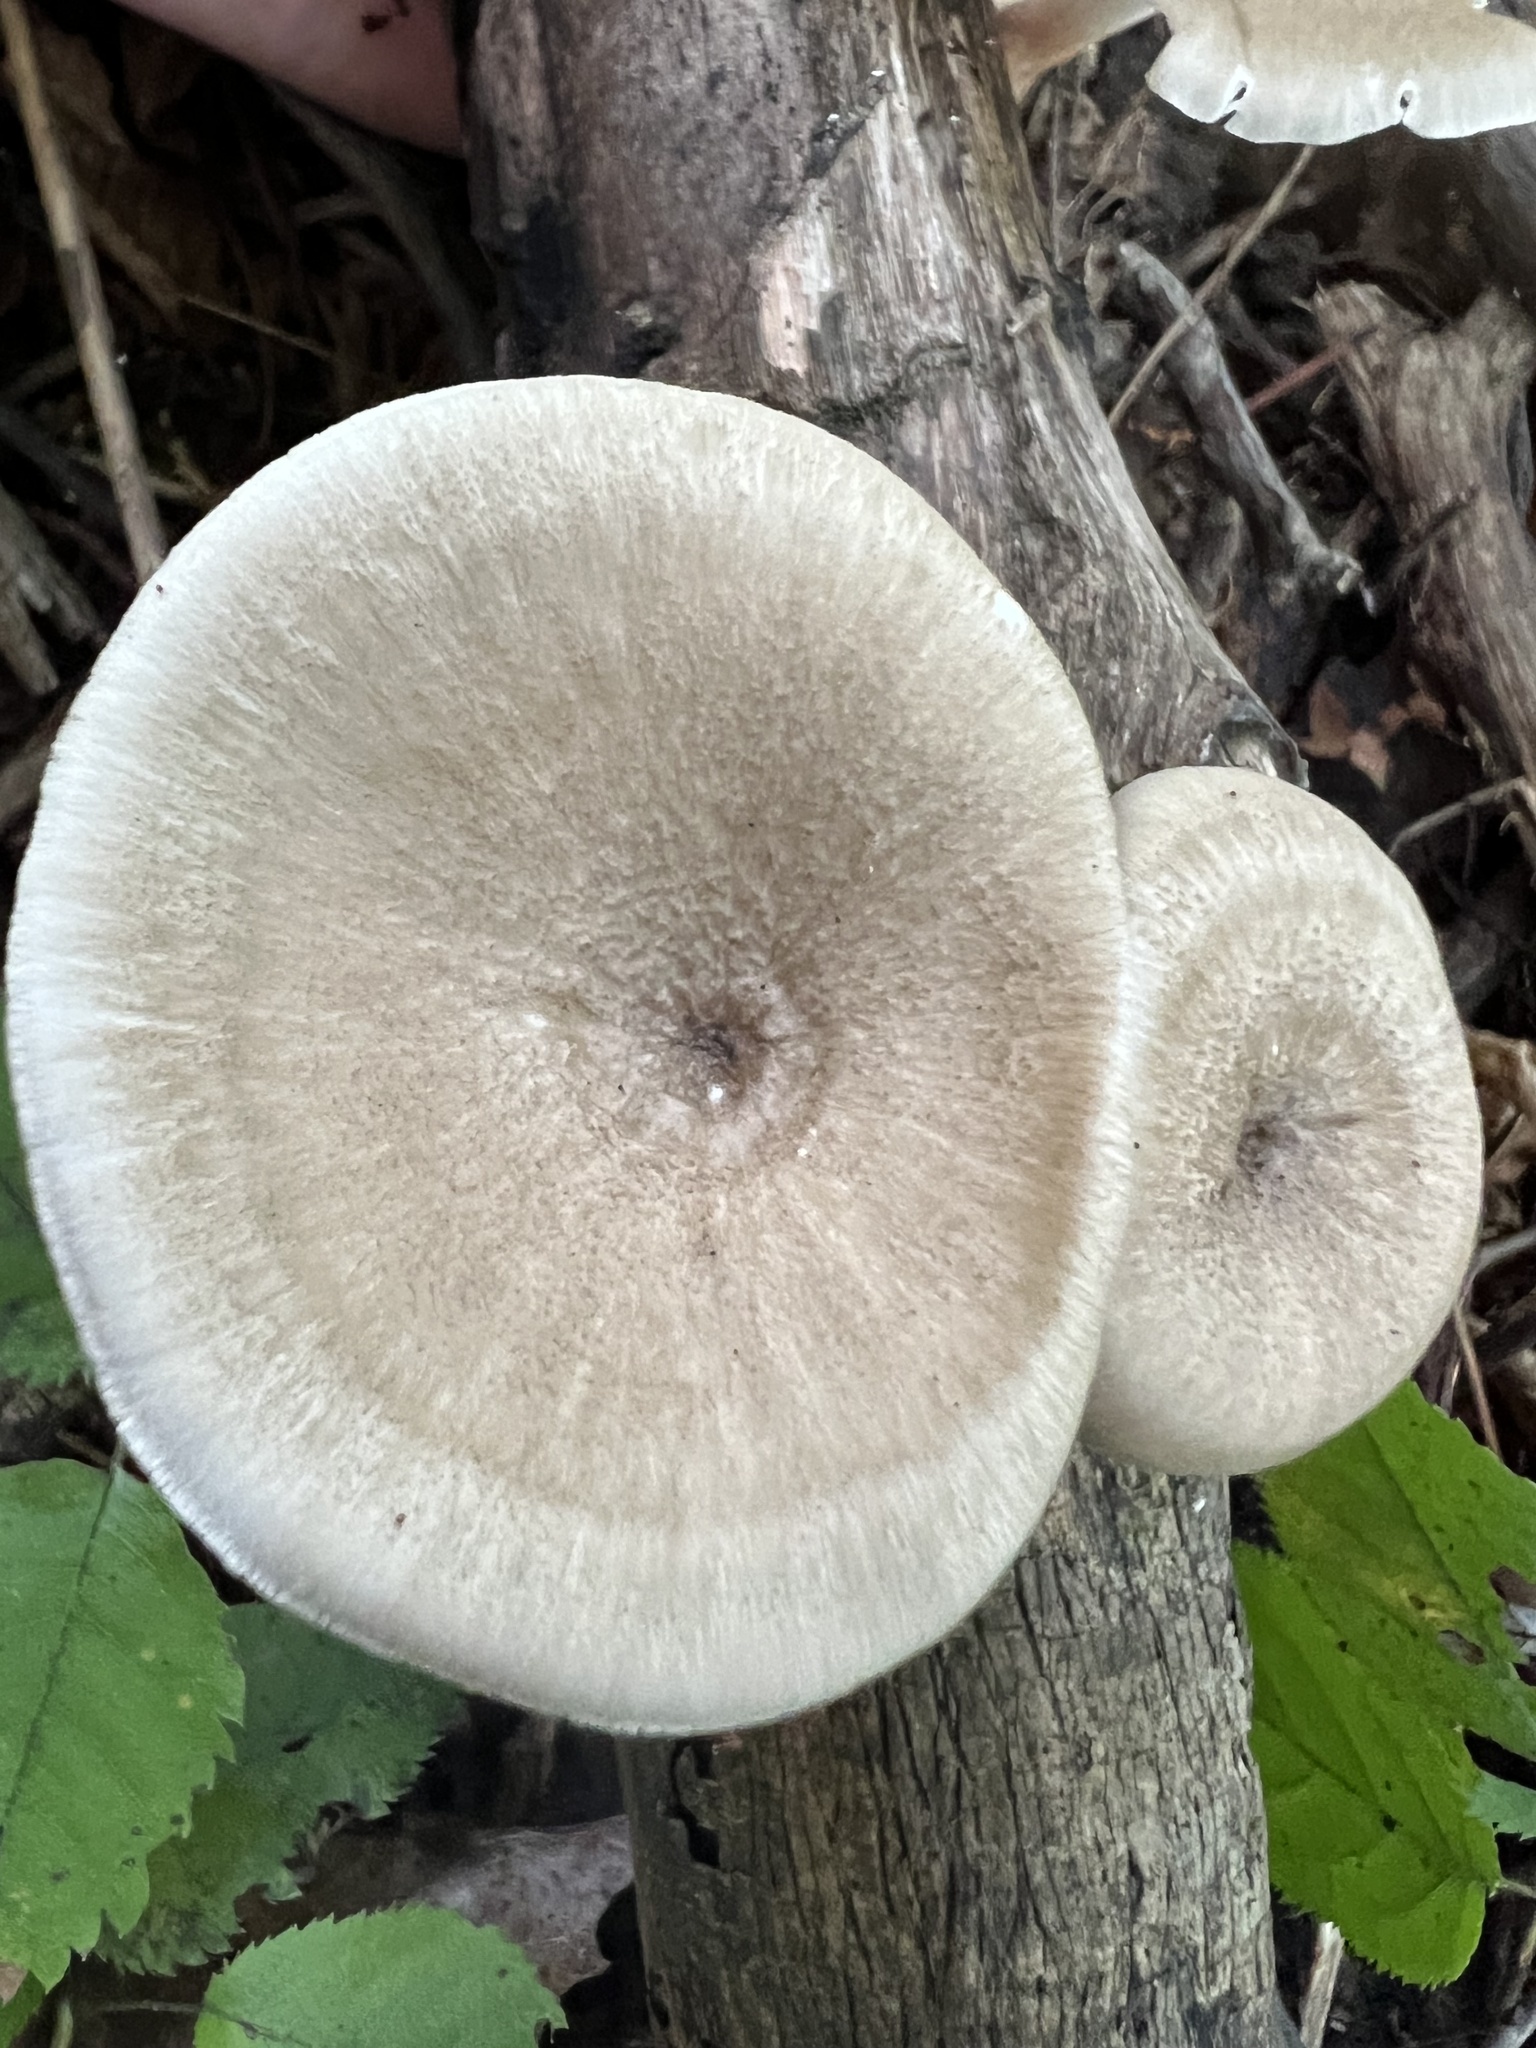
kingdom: Fungi
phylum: Basidiomycota
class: Agaricomycetes
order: Polyporales
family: Polyporaceae
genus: Picipes
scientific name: Picipes badius
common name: Bay polypore
